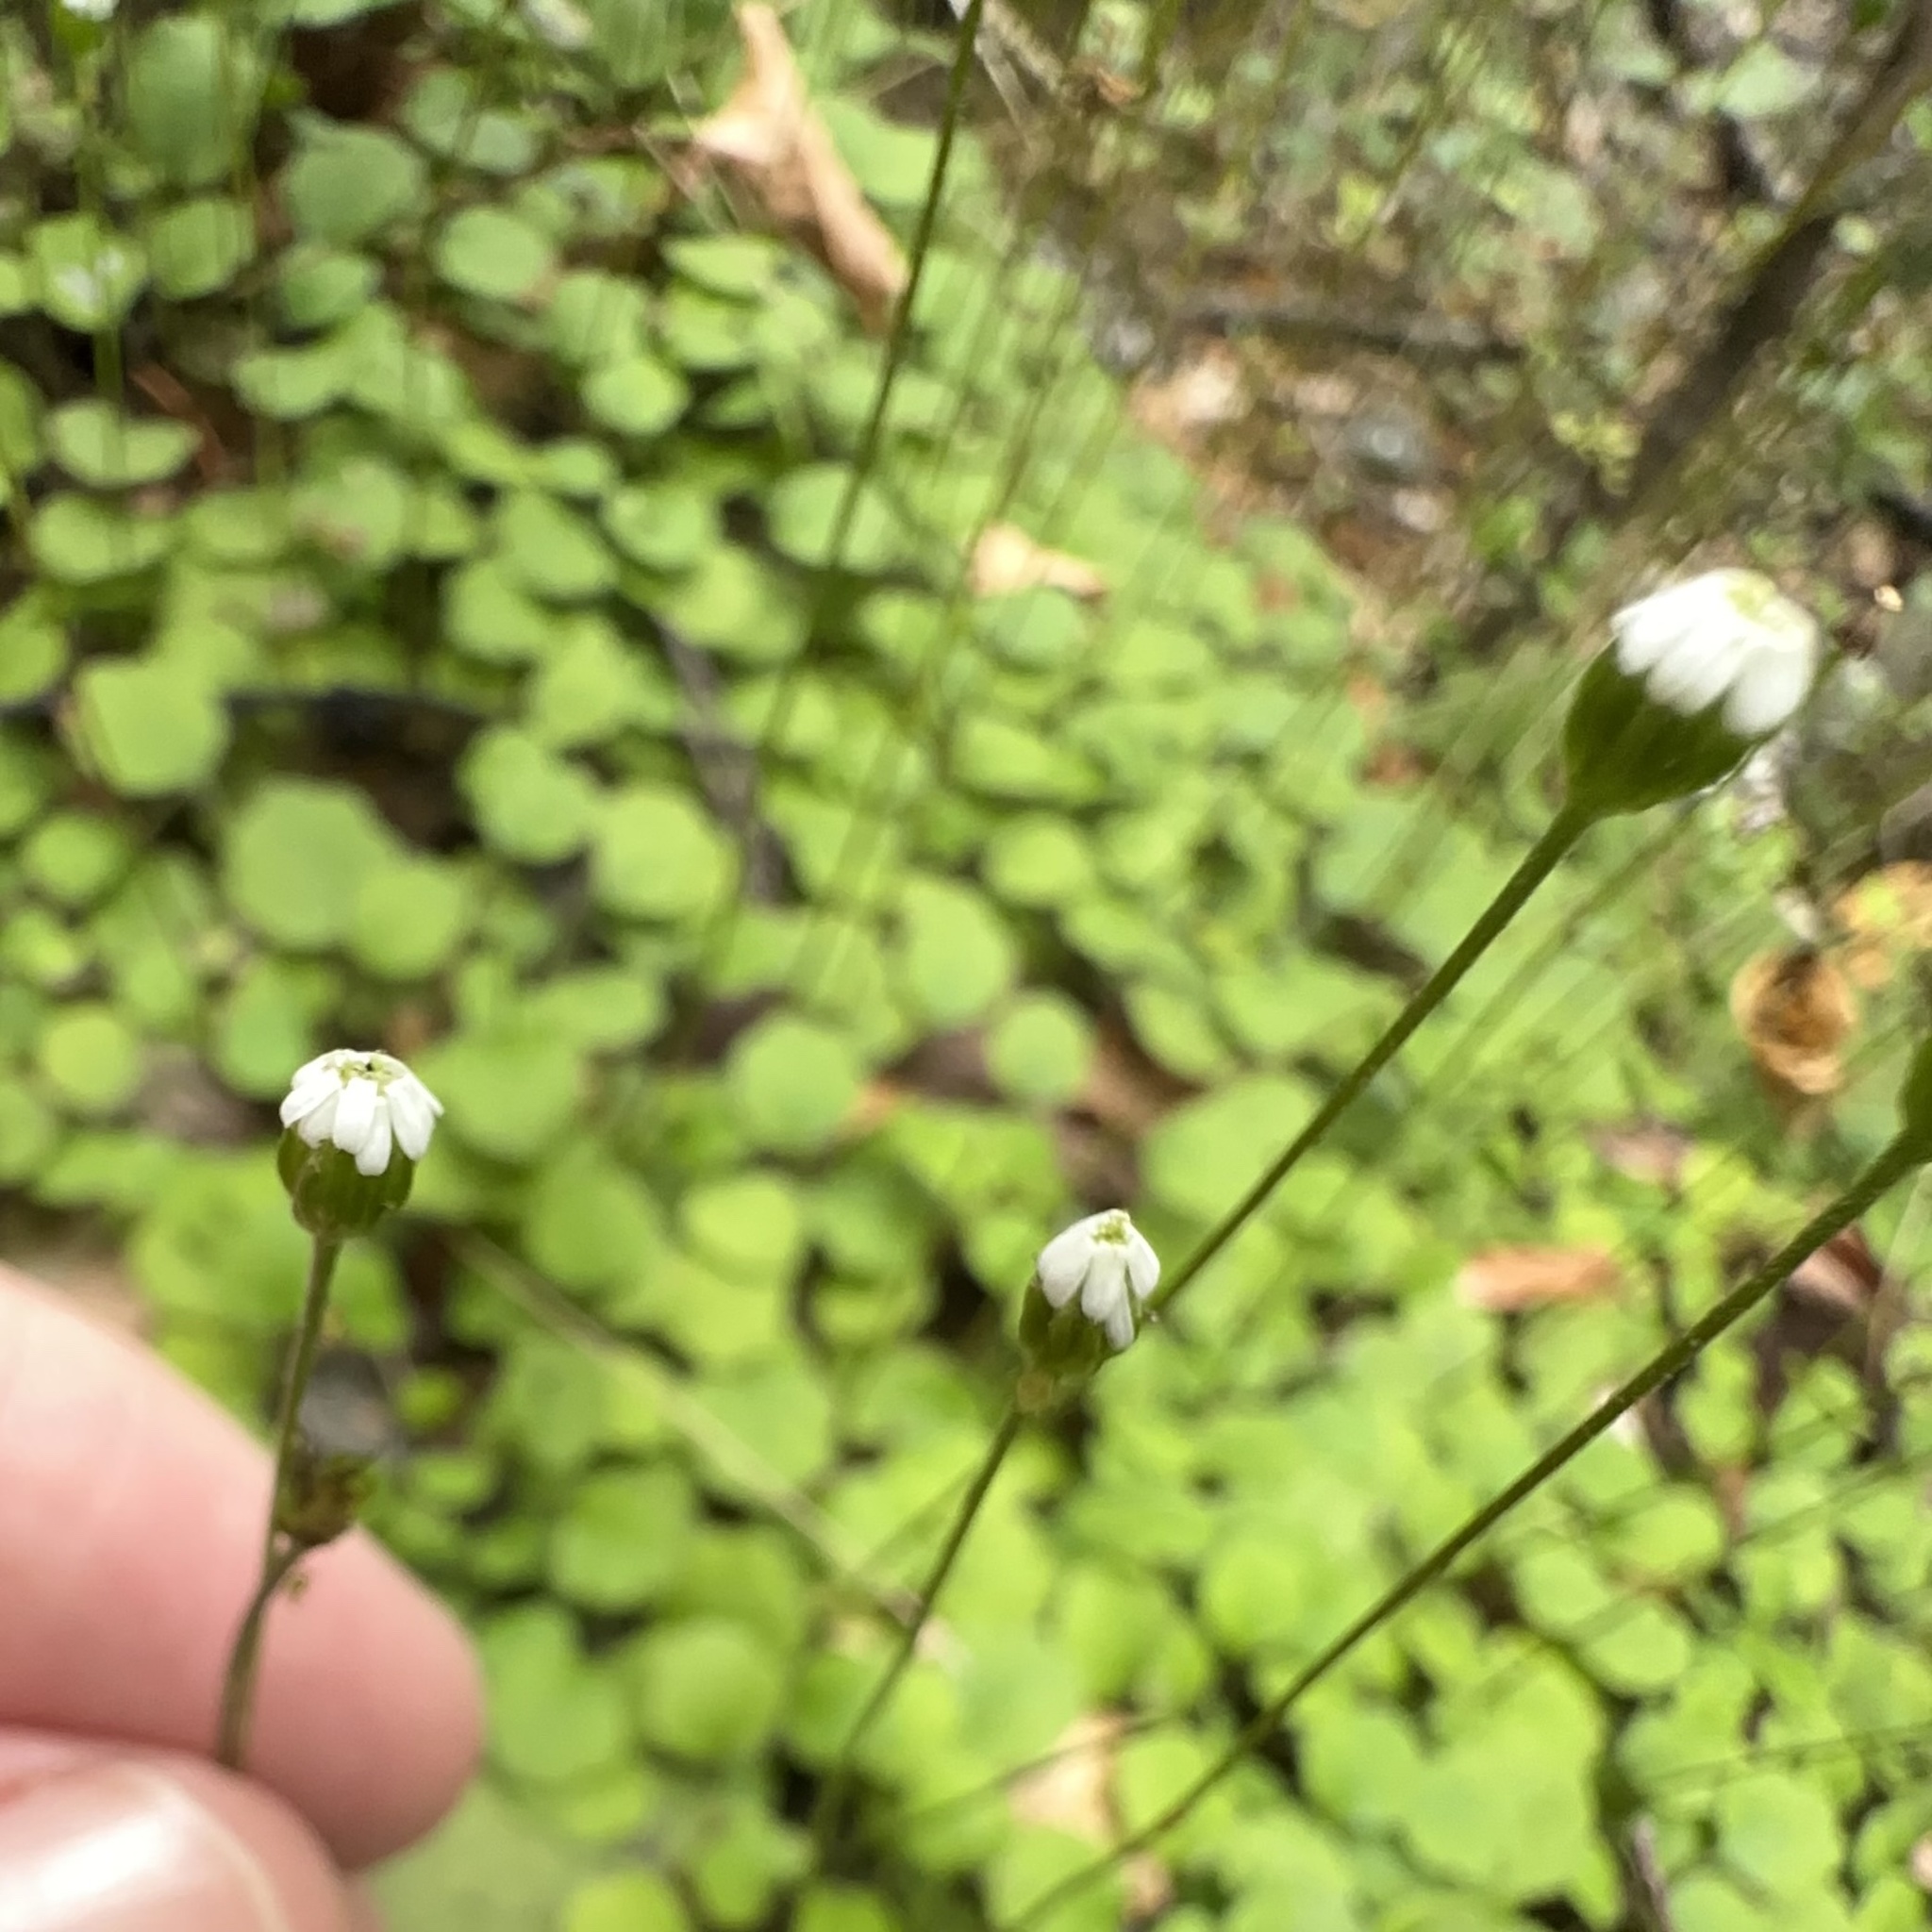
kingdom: Plantae
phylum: Tracheophyta
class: Magnoliopsida
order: Asterales
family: Asteraceae
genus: Lagenophora
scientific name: Lagenophora strangulata
